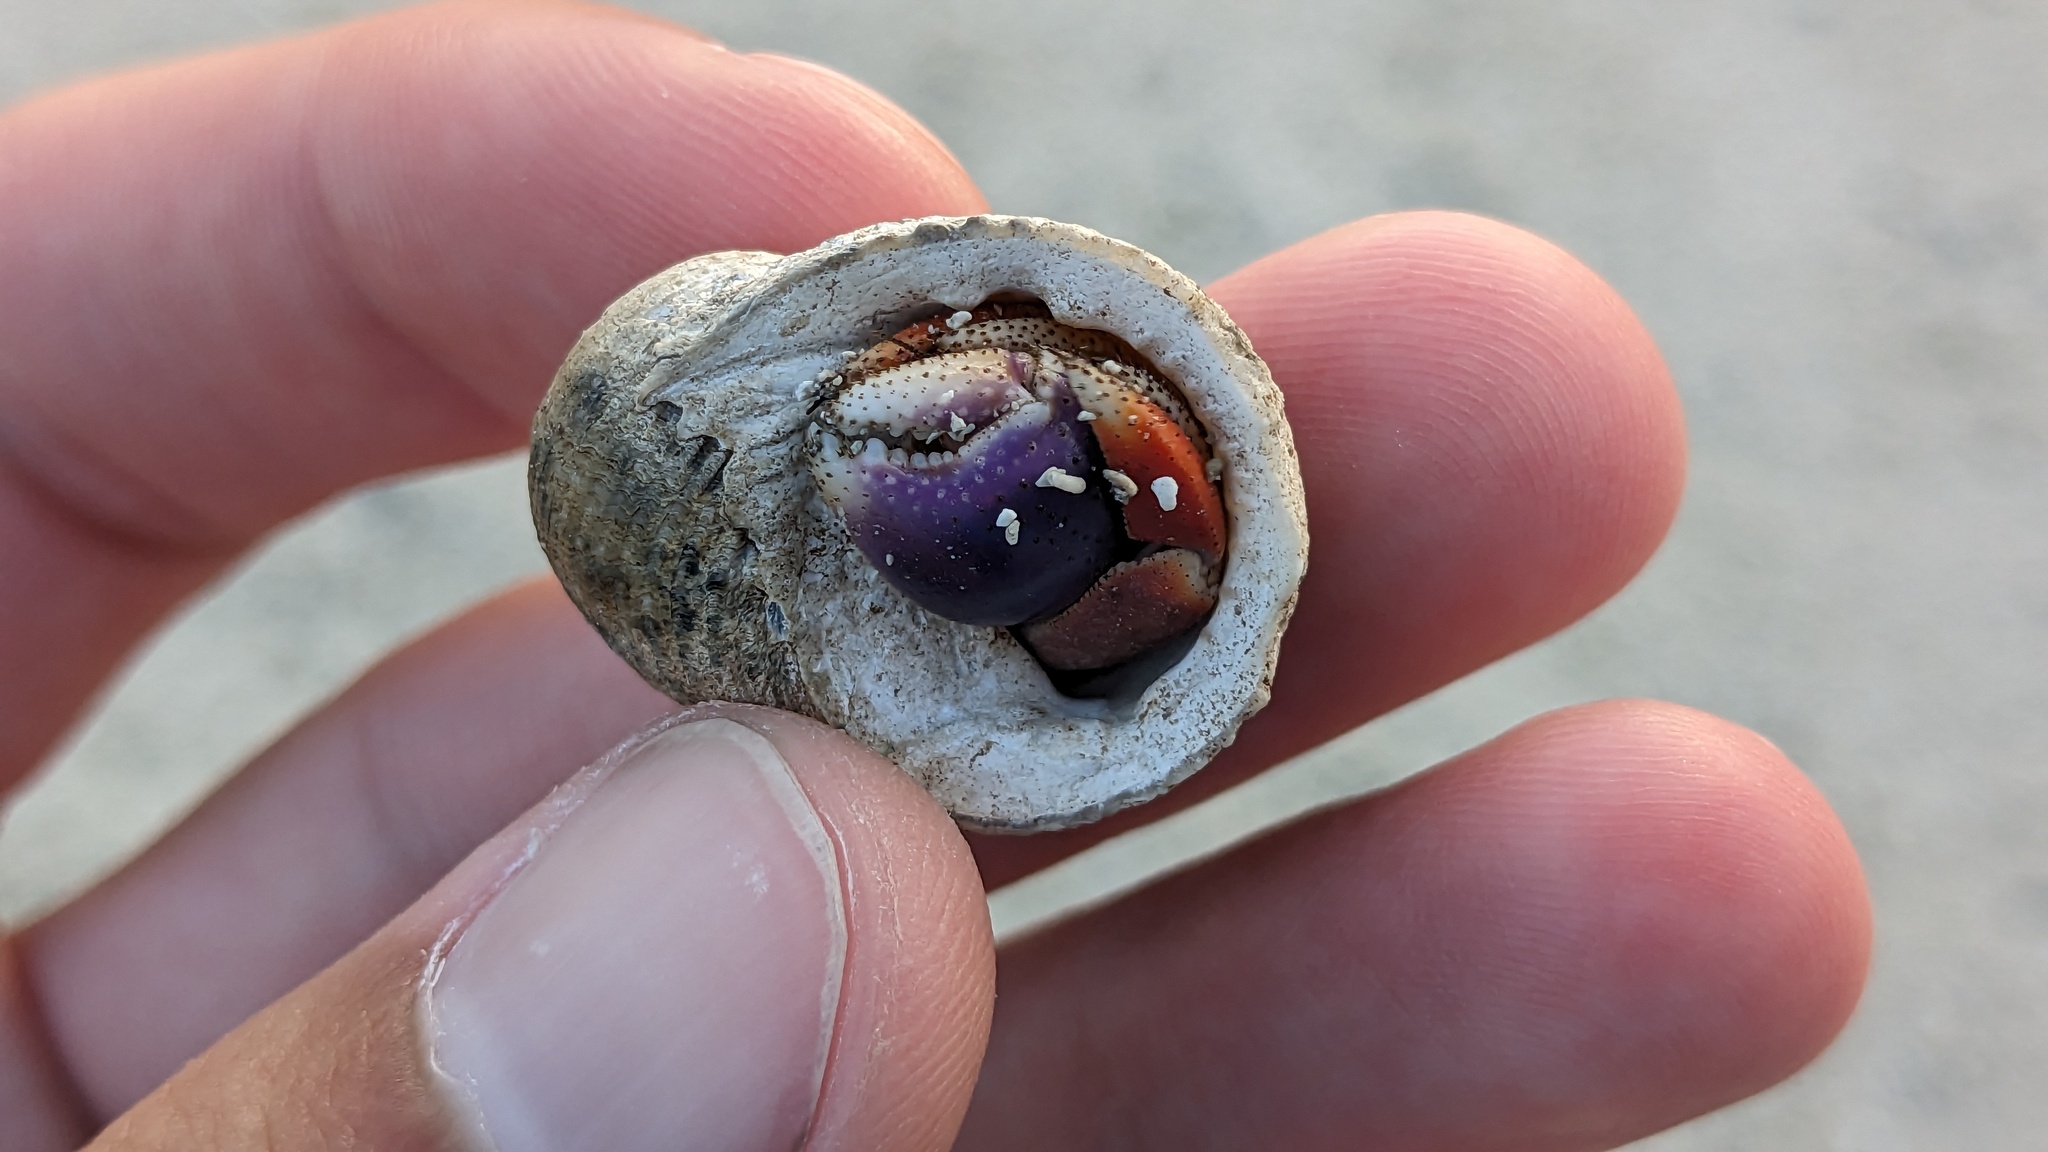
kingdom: Animalia
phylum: Arthropoda
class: Malacostraca
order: Decapoda
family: Coenobitidae
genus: Coenobita
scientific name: Coenobita clypeatus
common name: Caribbean hermit crab
